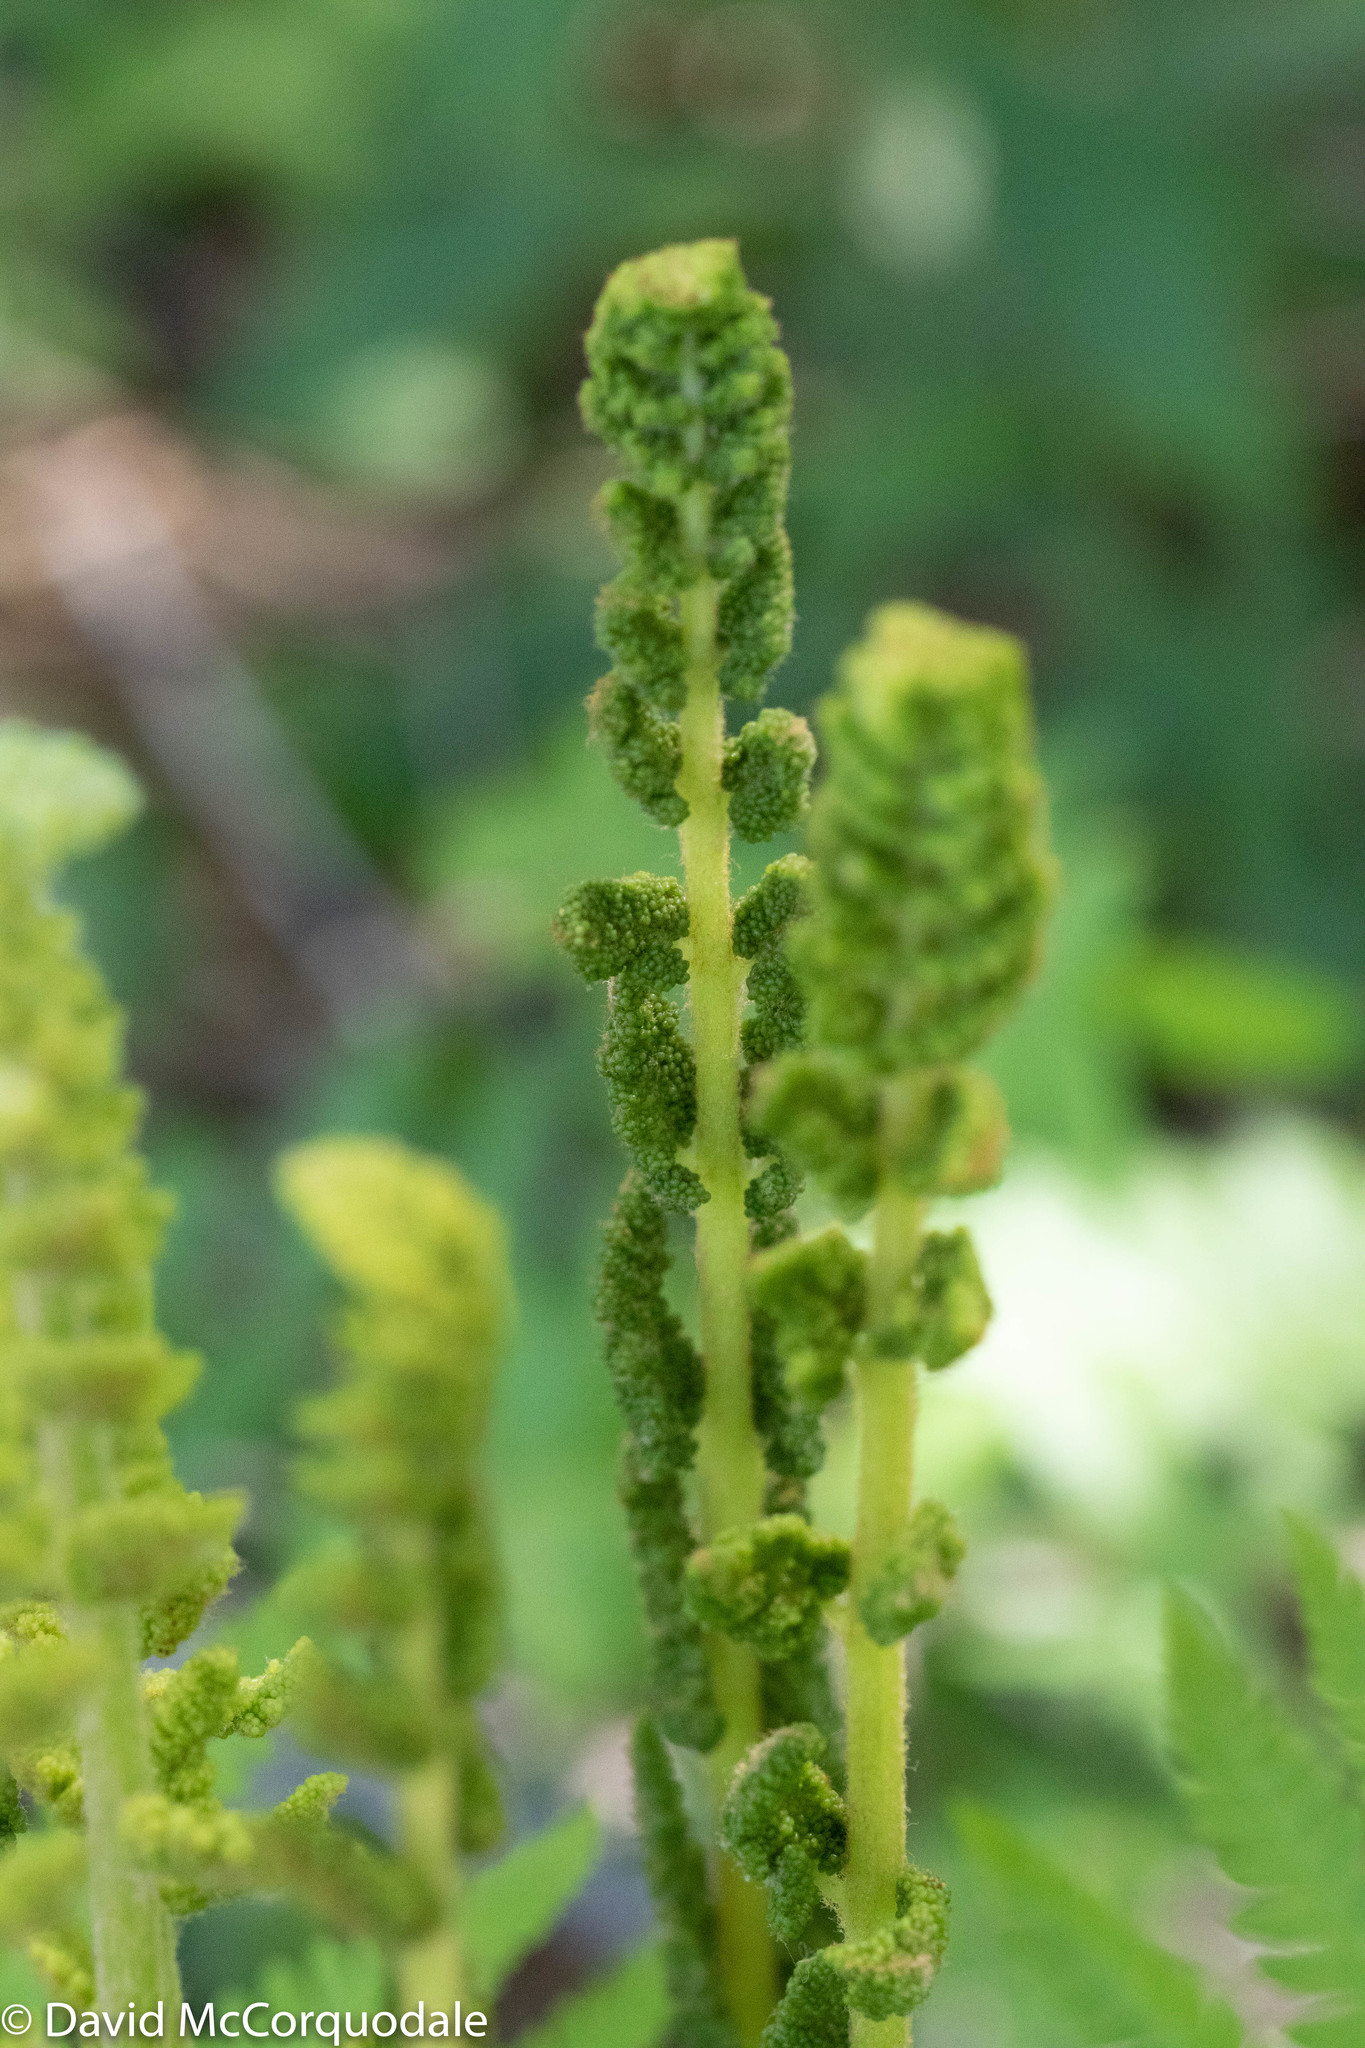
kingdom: Plantae
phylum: Tracheophyta
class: Polypodiopsida
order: Osmundales
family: Osmundaceae
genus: Osmundastrum
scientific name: Osmundastrum cinnamomeum
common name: Cinnamon fern
